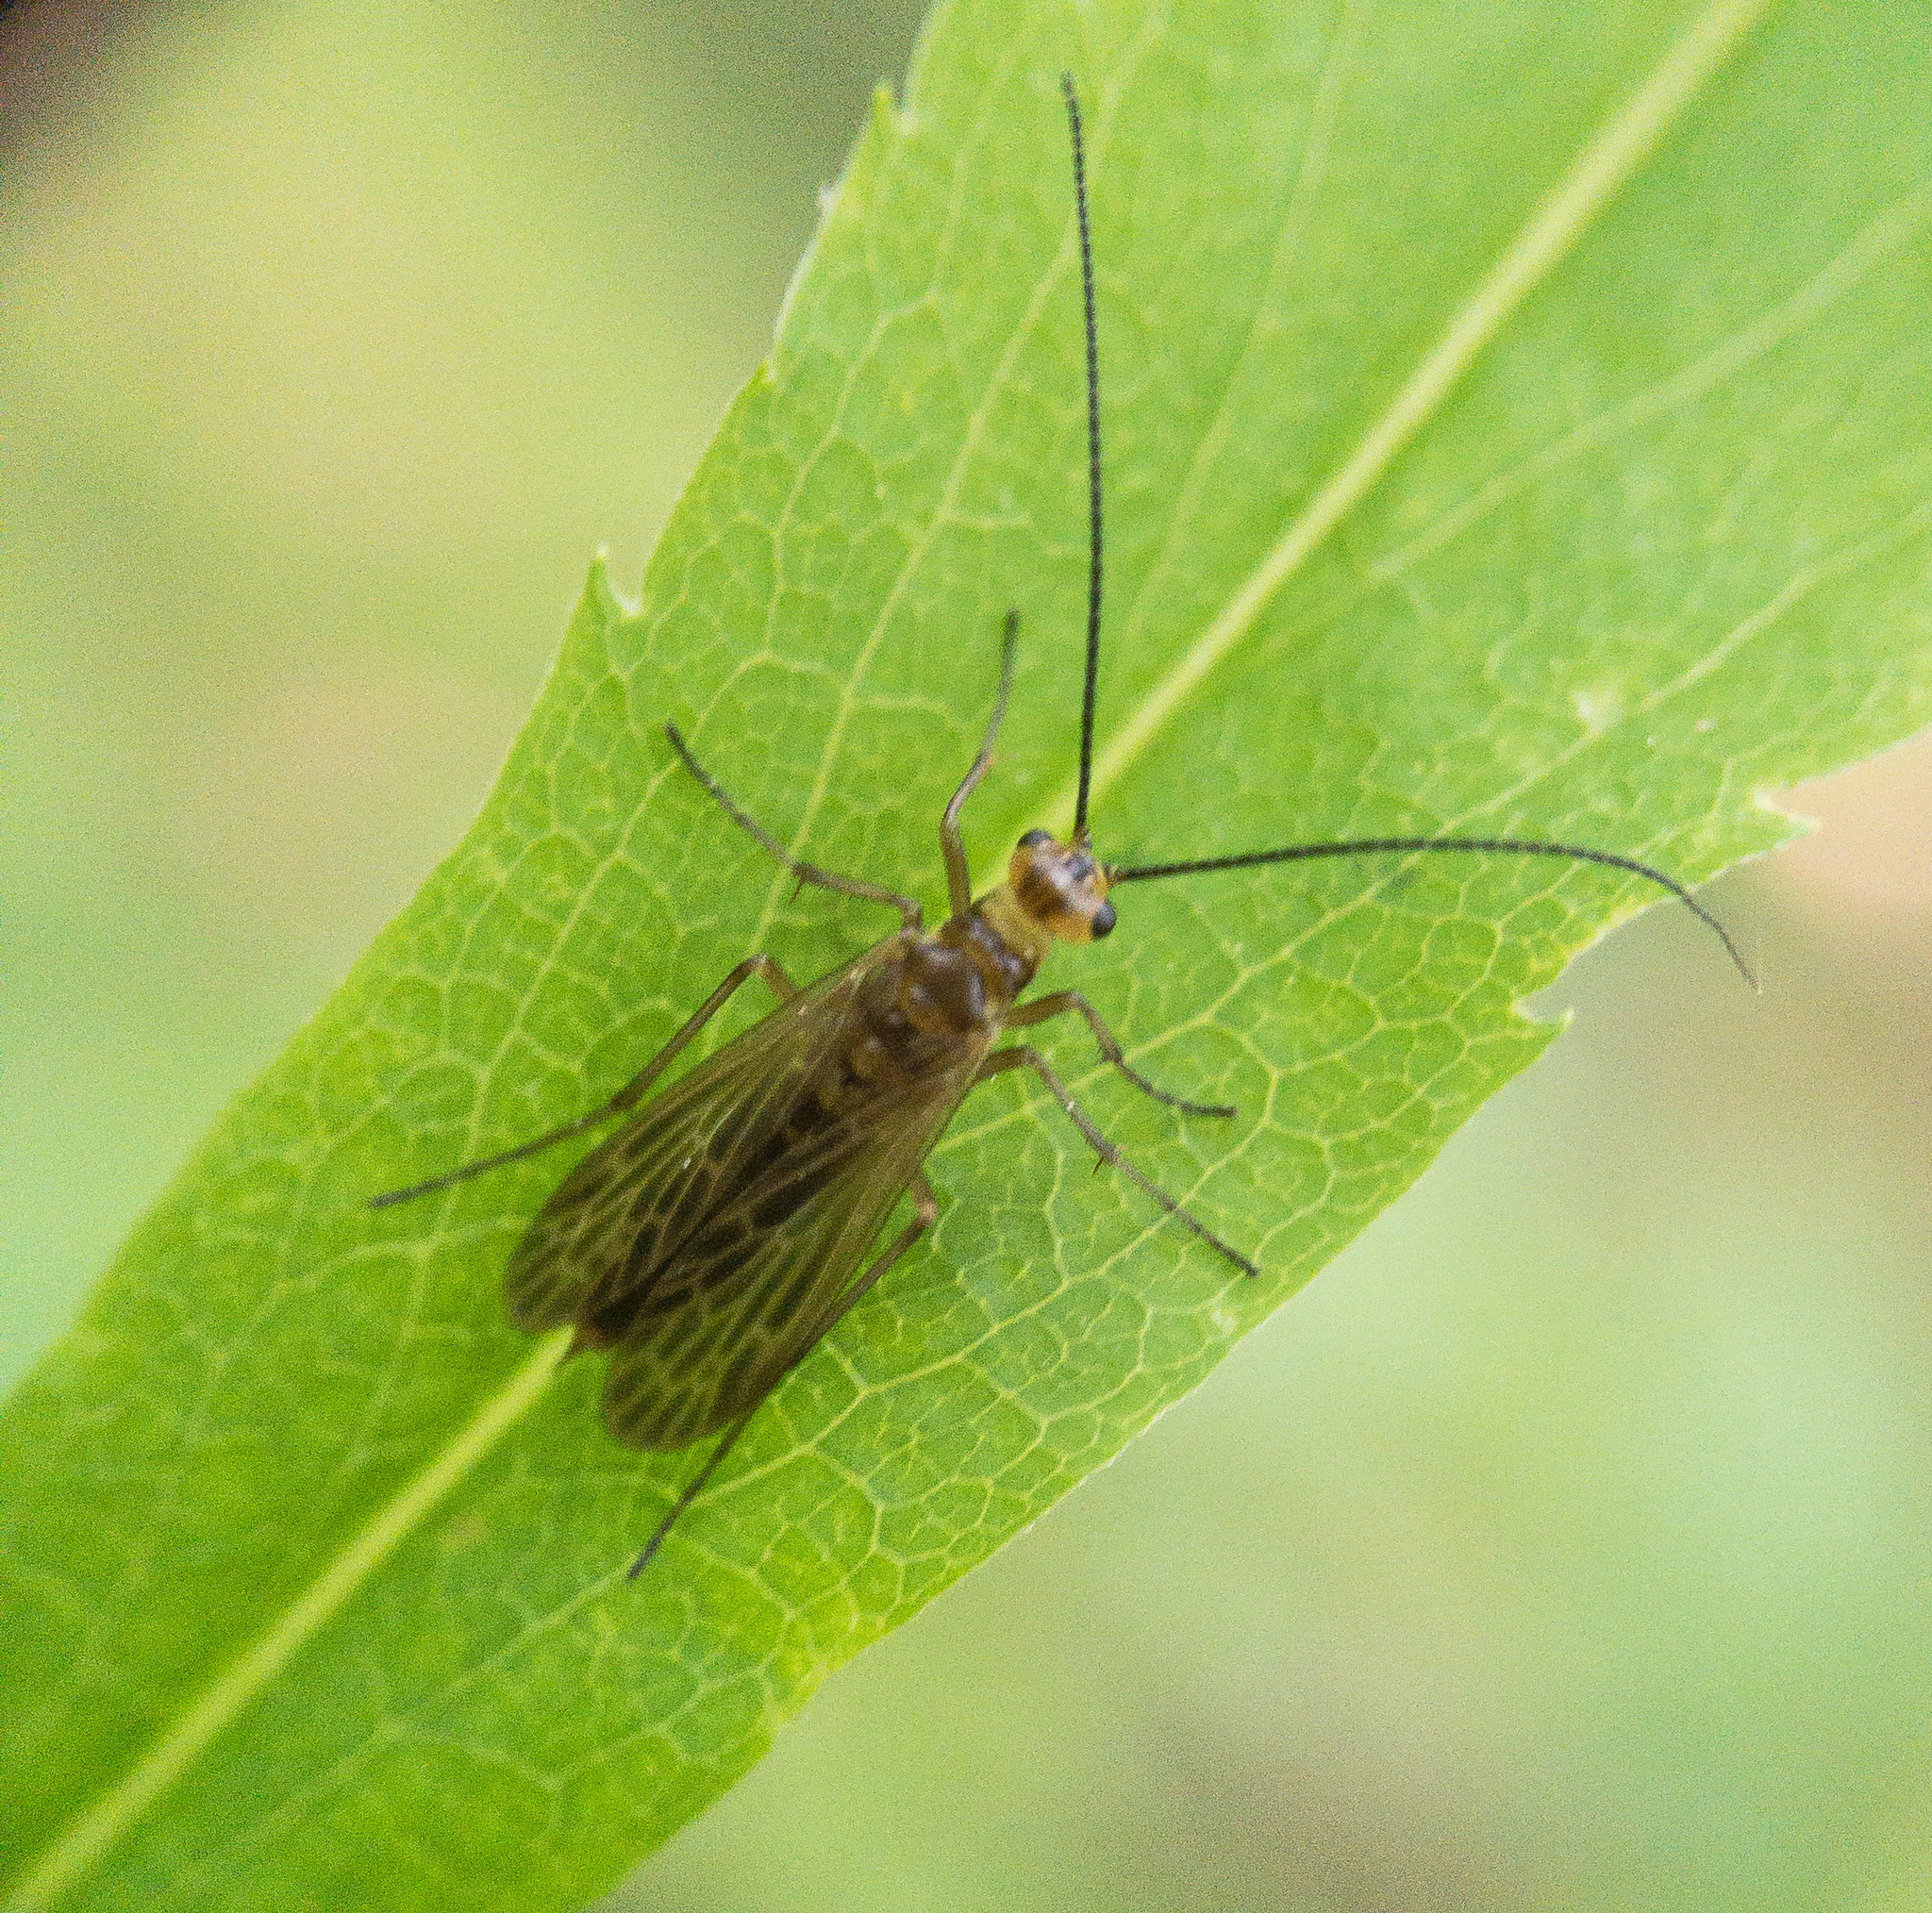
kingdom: Animalia
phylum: Arthropoda
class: Insecta
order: Mecoptera
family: Panorpodidae
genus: Brachypanorpa
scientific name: Brachypanorpa carolinensis
